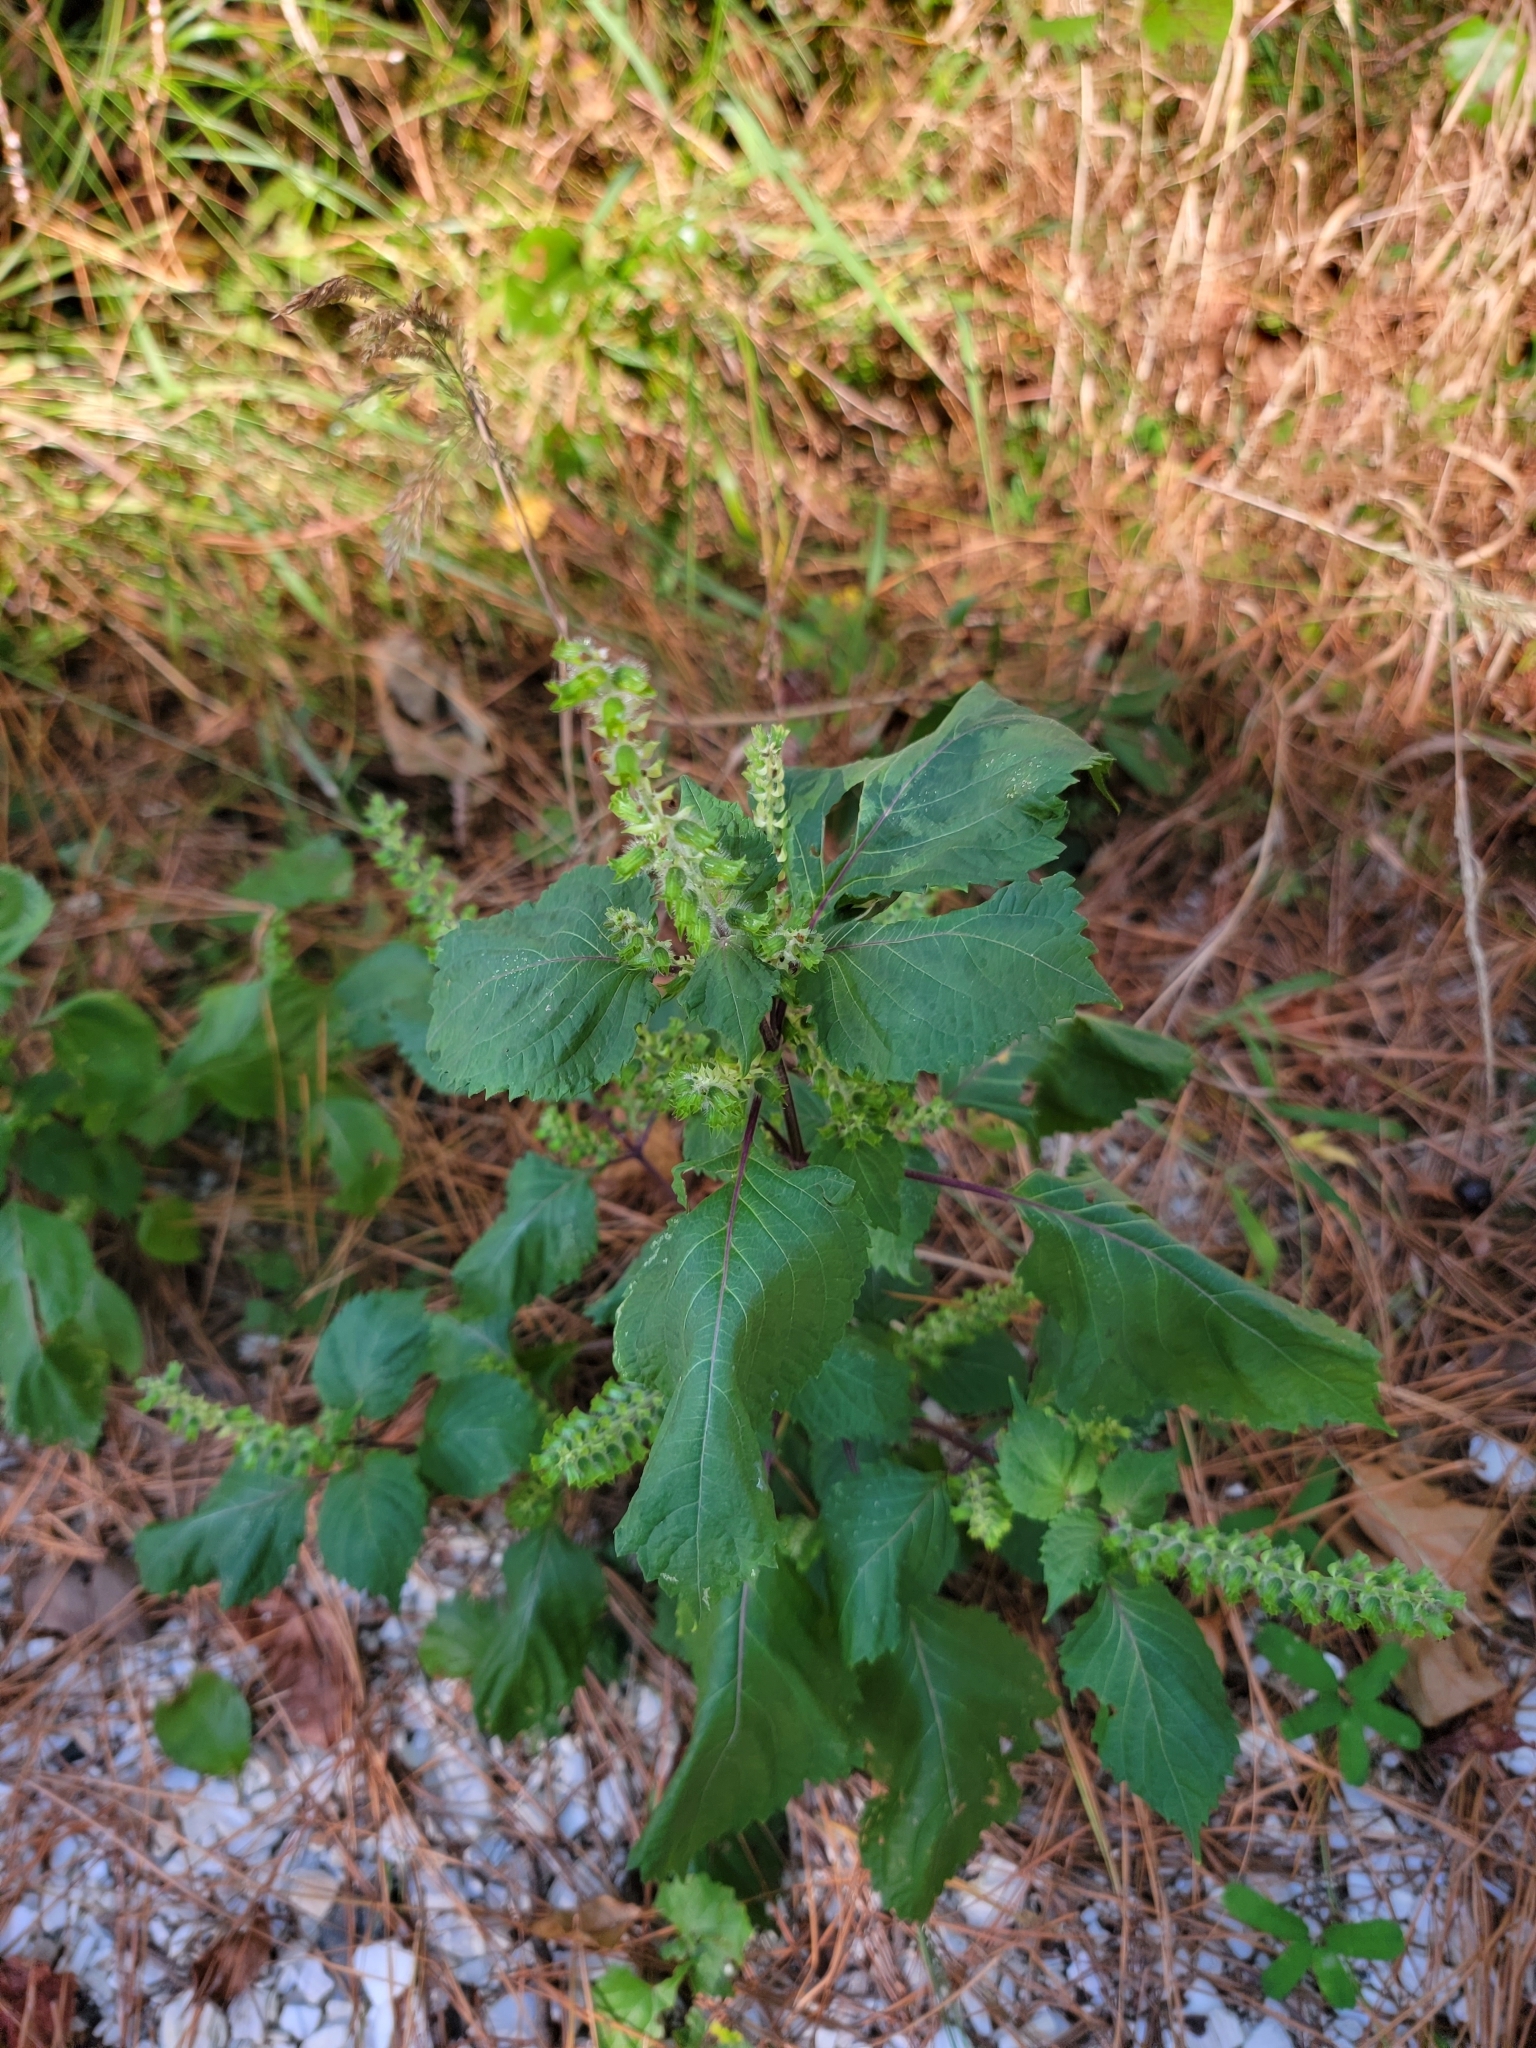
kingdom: Plantae
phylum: Tracheophyta
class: Magnoliopsida
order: Lamiales
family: Lamiaceae
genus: Perilla
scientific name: Perilla frutescens
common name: Perilla
